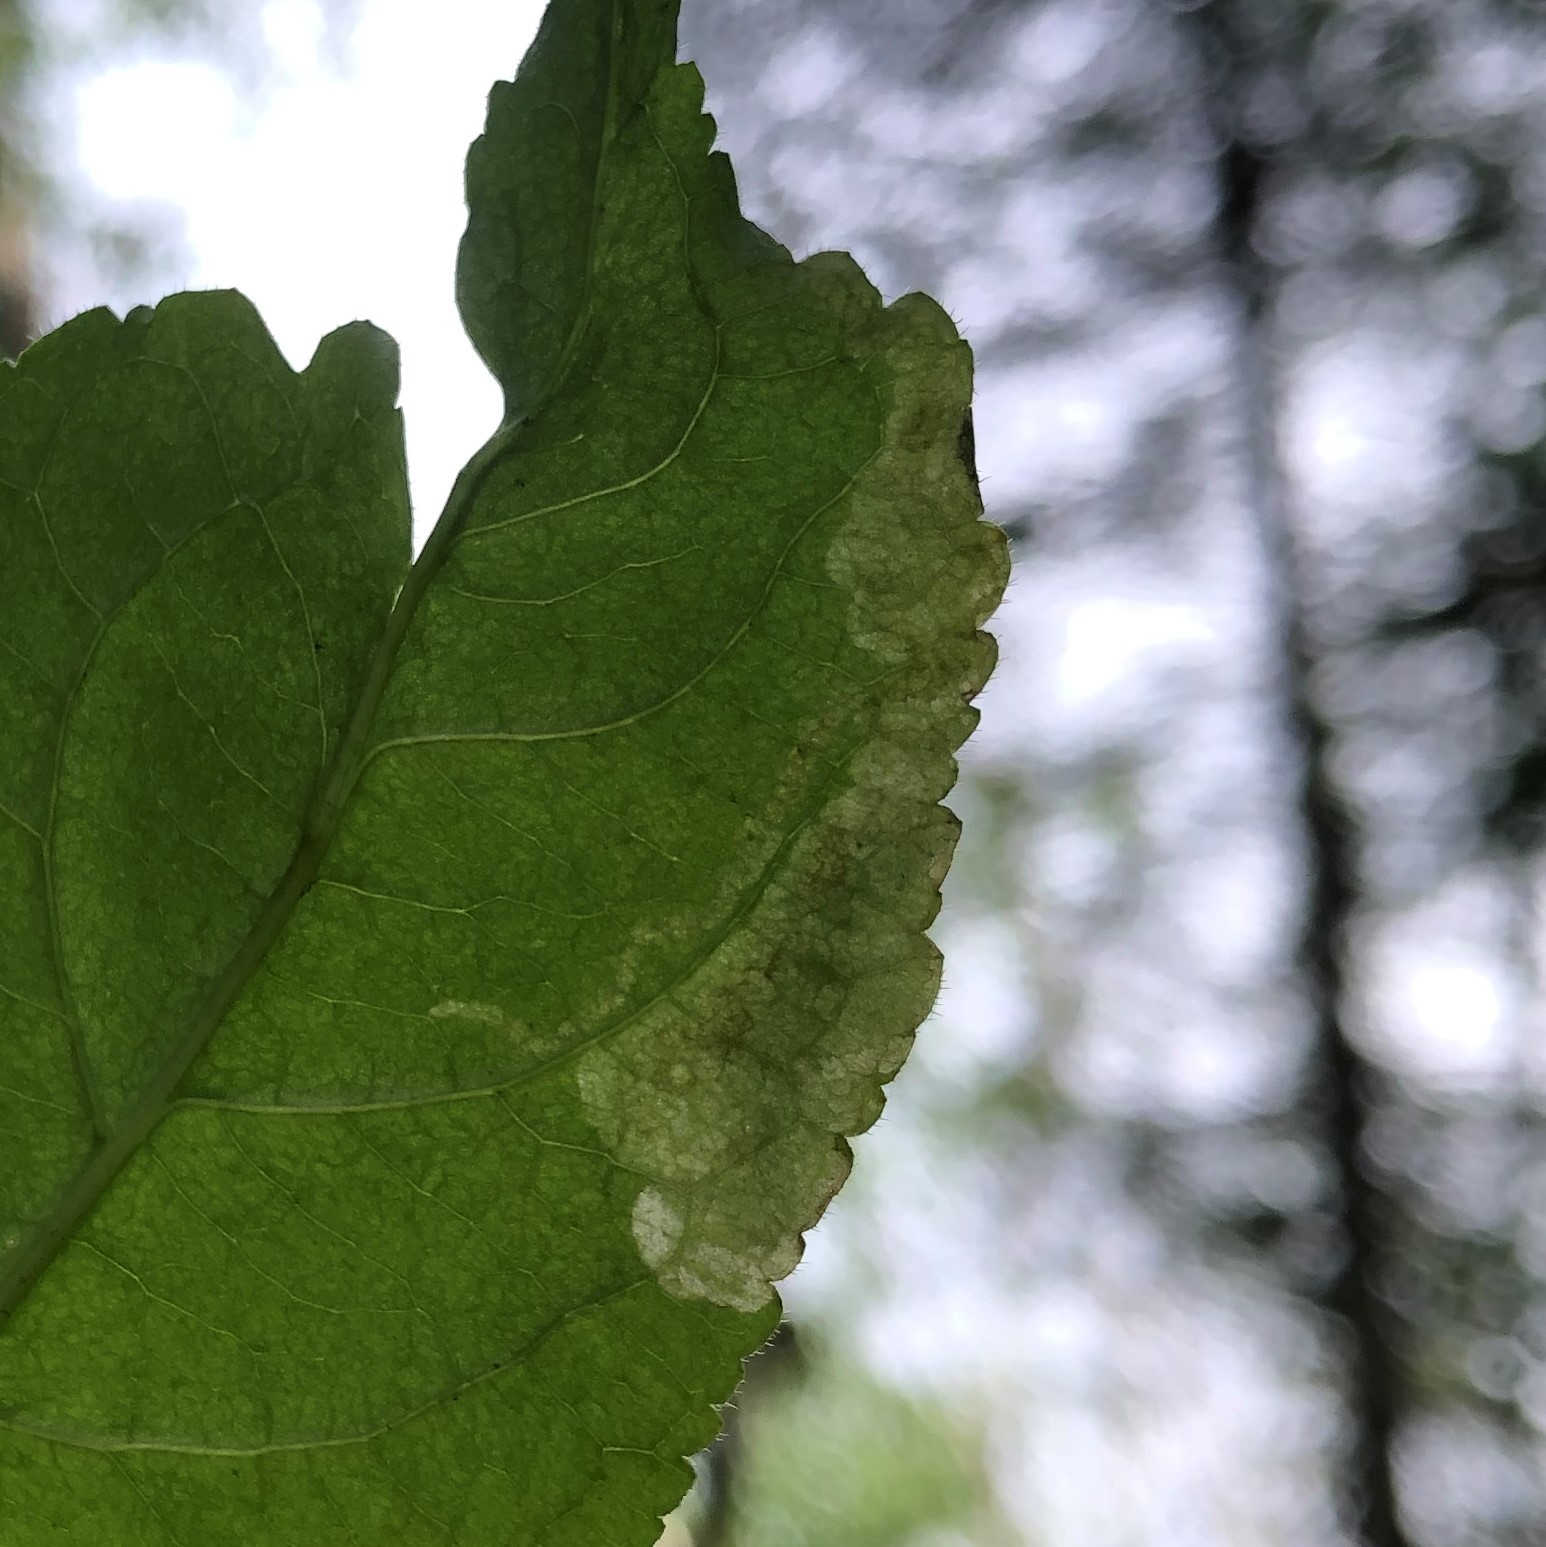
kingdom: Animalia
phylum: Arthropoda
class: Insecta
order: Diptera
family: Agromyzidae
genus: Aulagromyza
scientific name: Aulagromyza orbitalis
